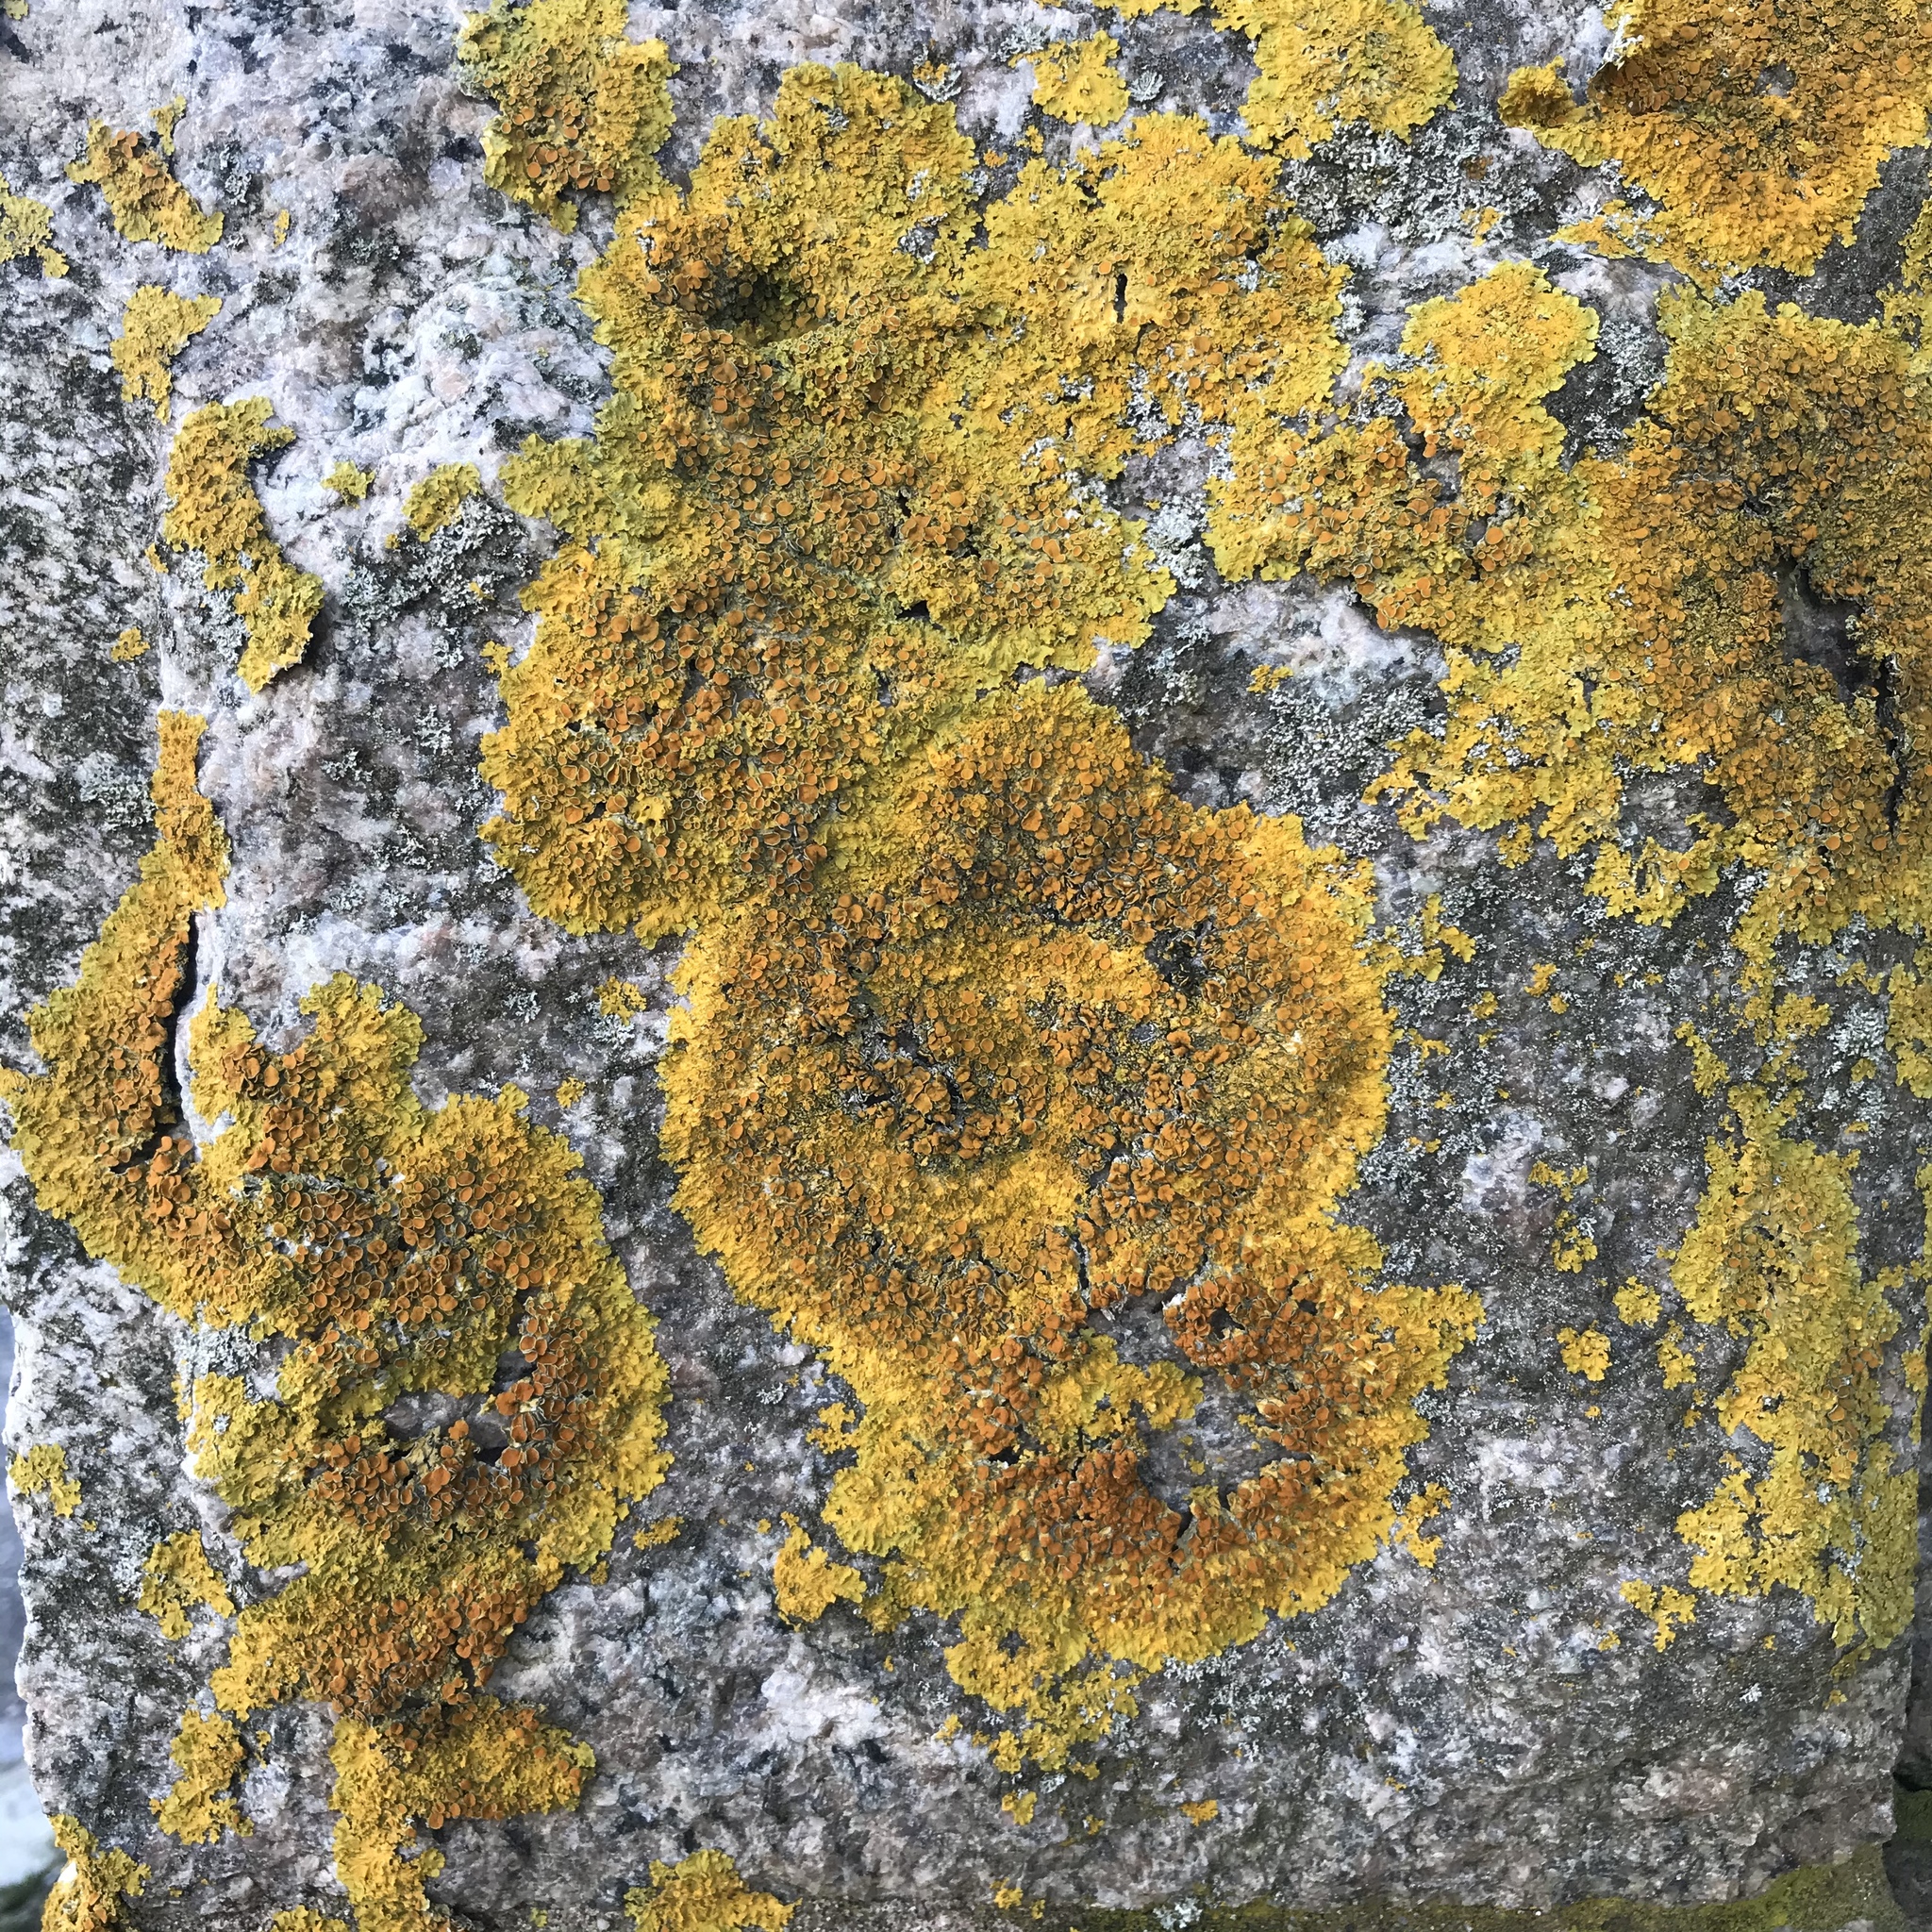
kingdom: Fungi
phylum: Ascomycota
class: Lecanoromycetes
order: Teloschistales
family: Teloschistaceae
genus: Xanthoria
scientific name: Xanthoria parietina
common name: Common orange lichen
